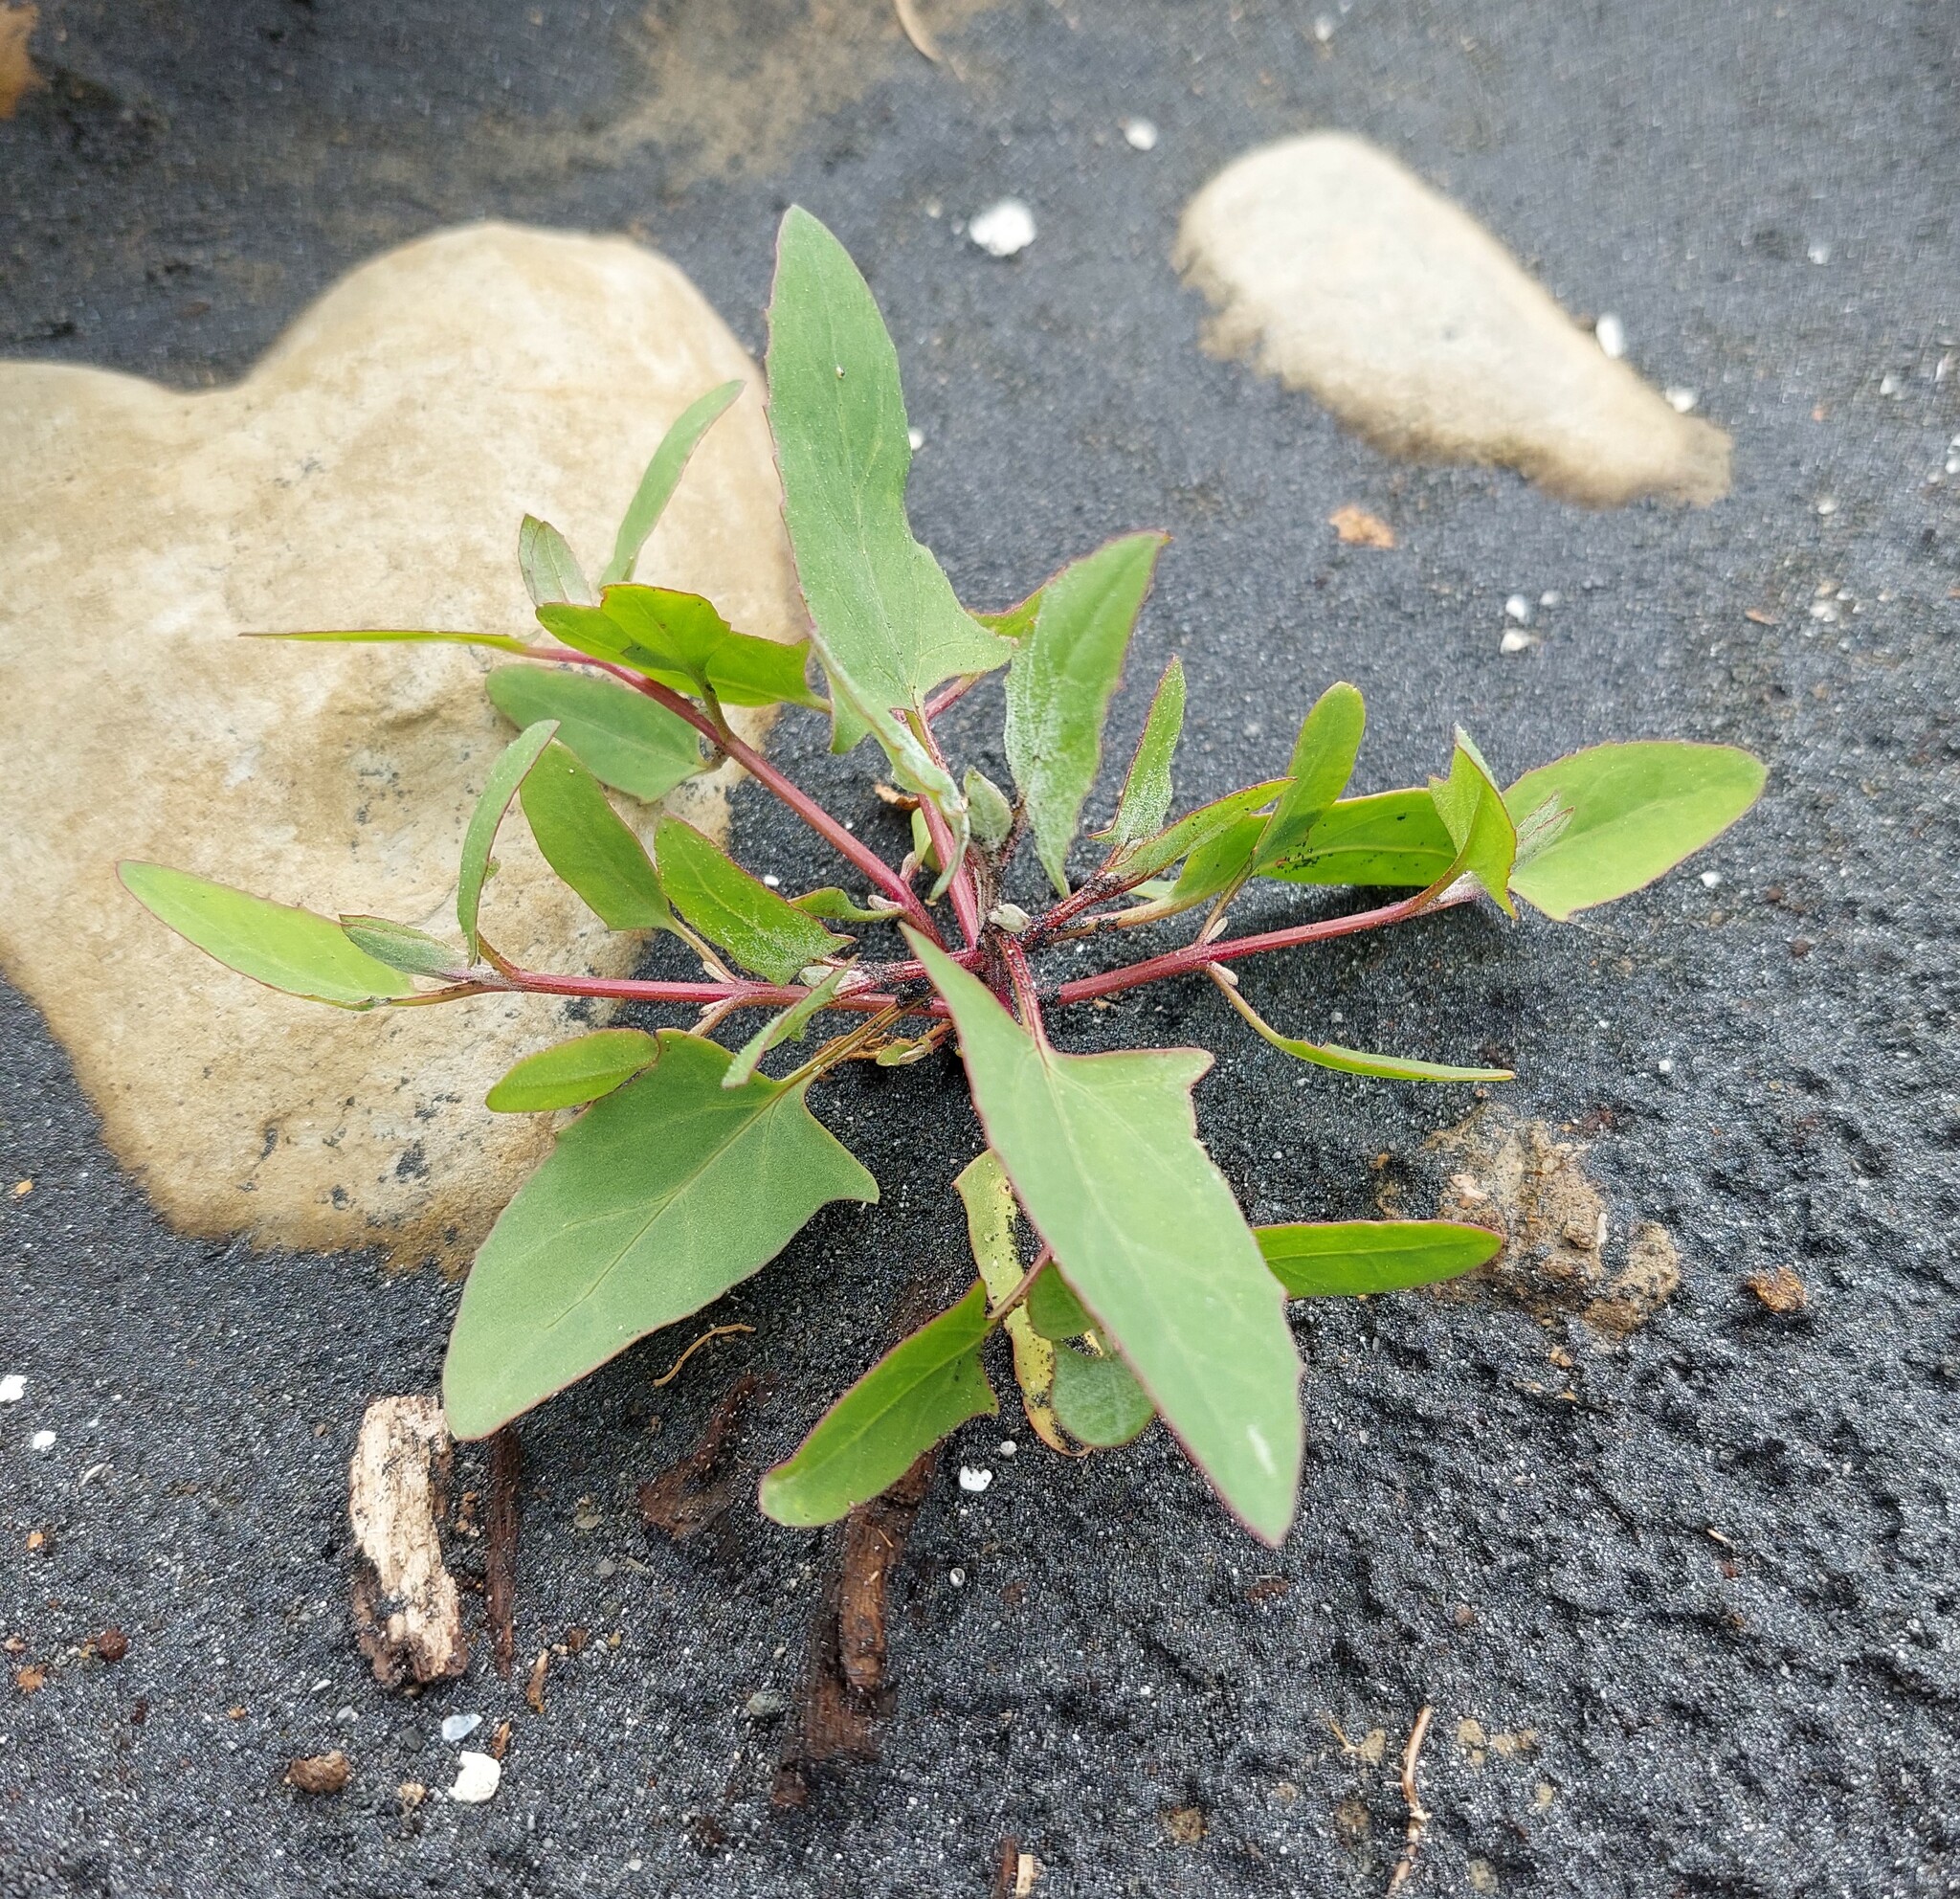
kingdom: Plantae
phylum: Tracheophyta
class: Magnoliopsida
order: Caryophyllales
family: Amaranthaceae
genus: Atriplex
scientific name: Atriplex prostrata
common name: Spear-leaved orache
